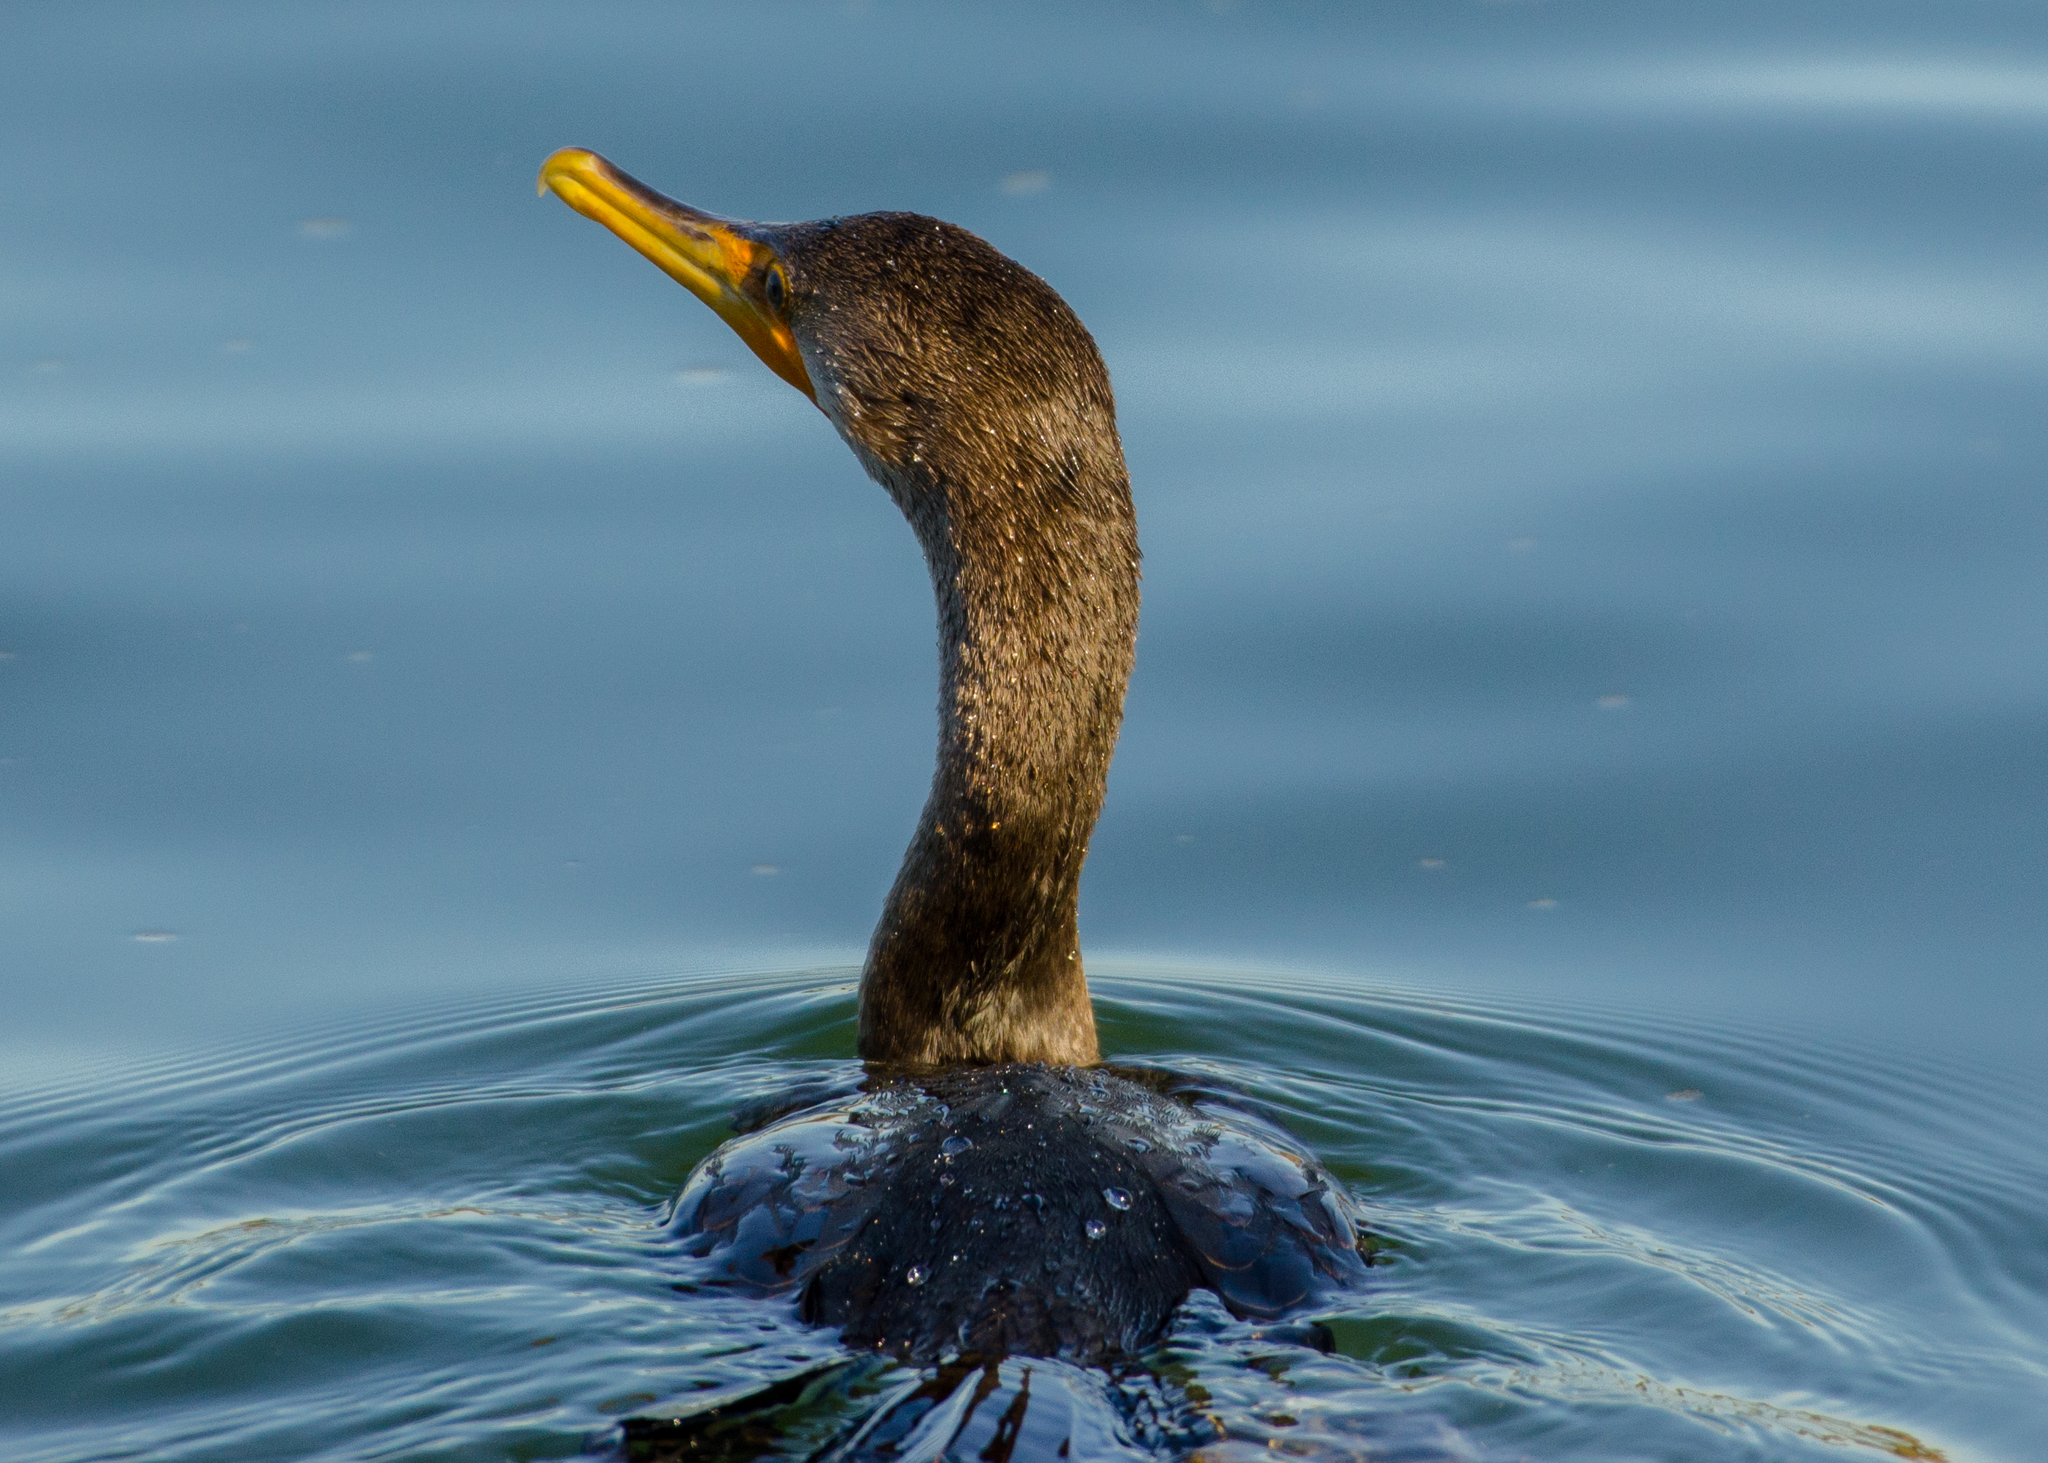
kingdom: Animalia
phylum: Chordata
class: Aves
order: Suliformes
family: Phalacrocoracidae
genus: Phalacrocorax
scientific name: Phalacrocorax auritus
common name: Double-crested cormorant
